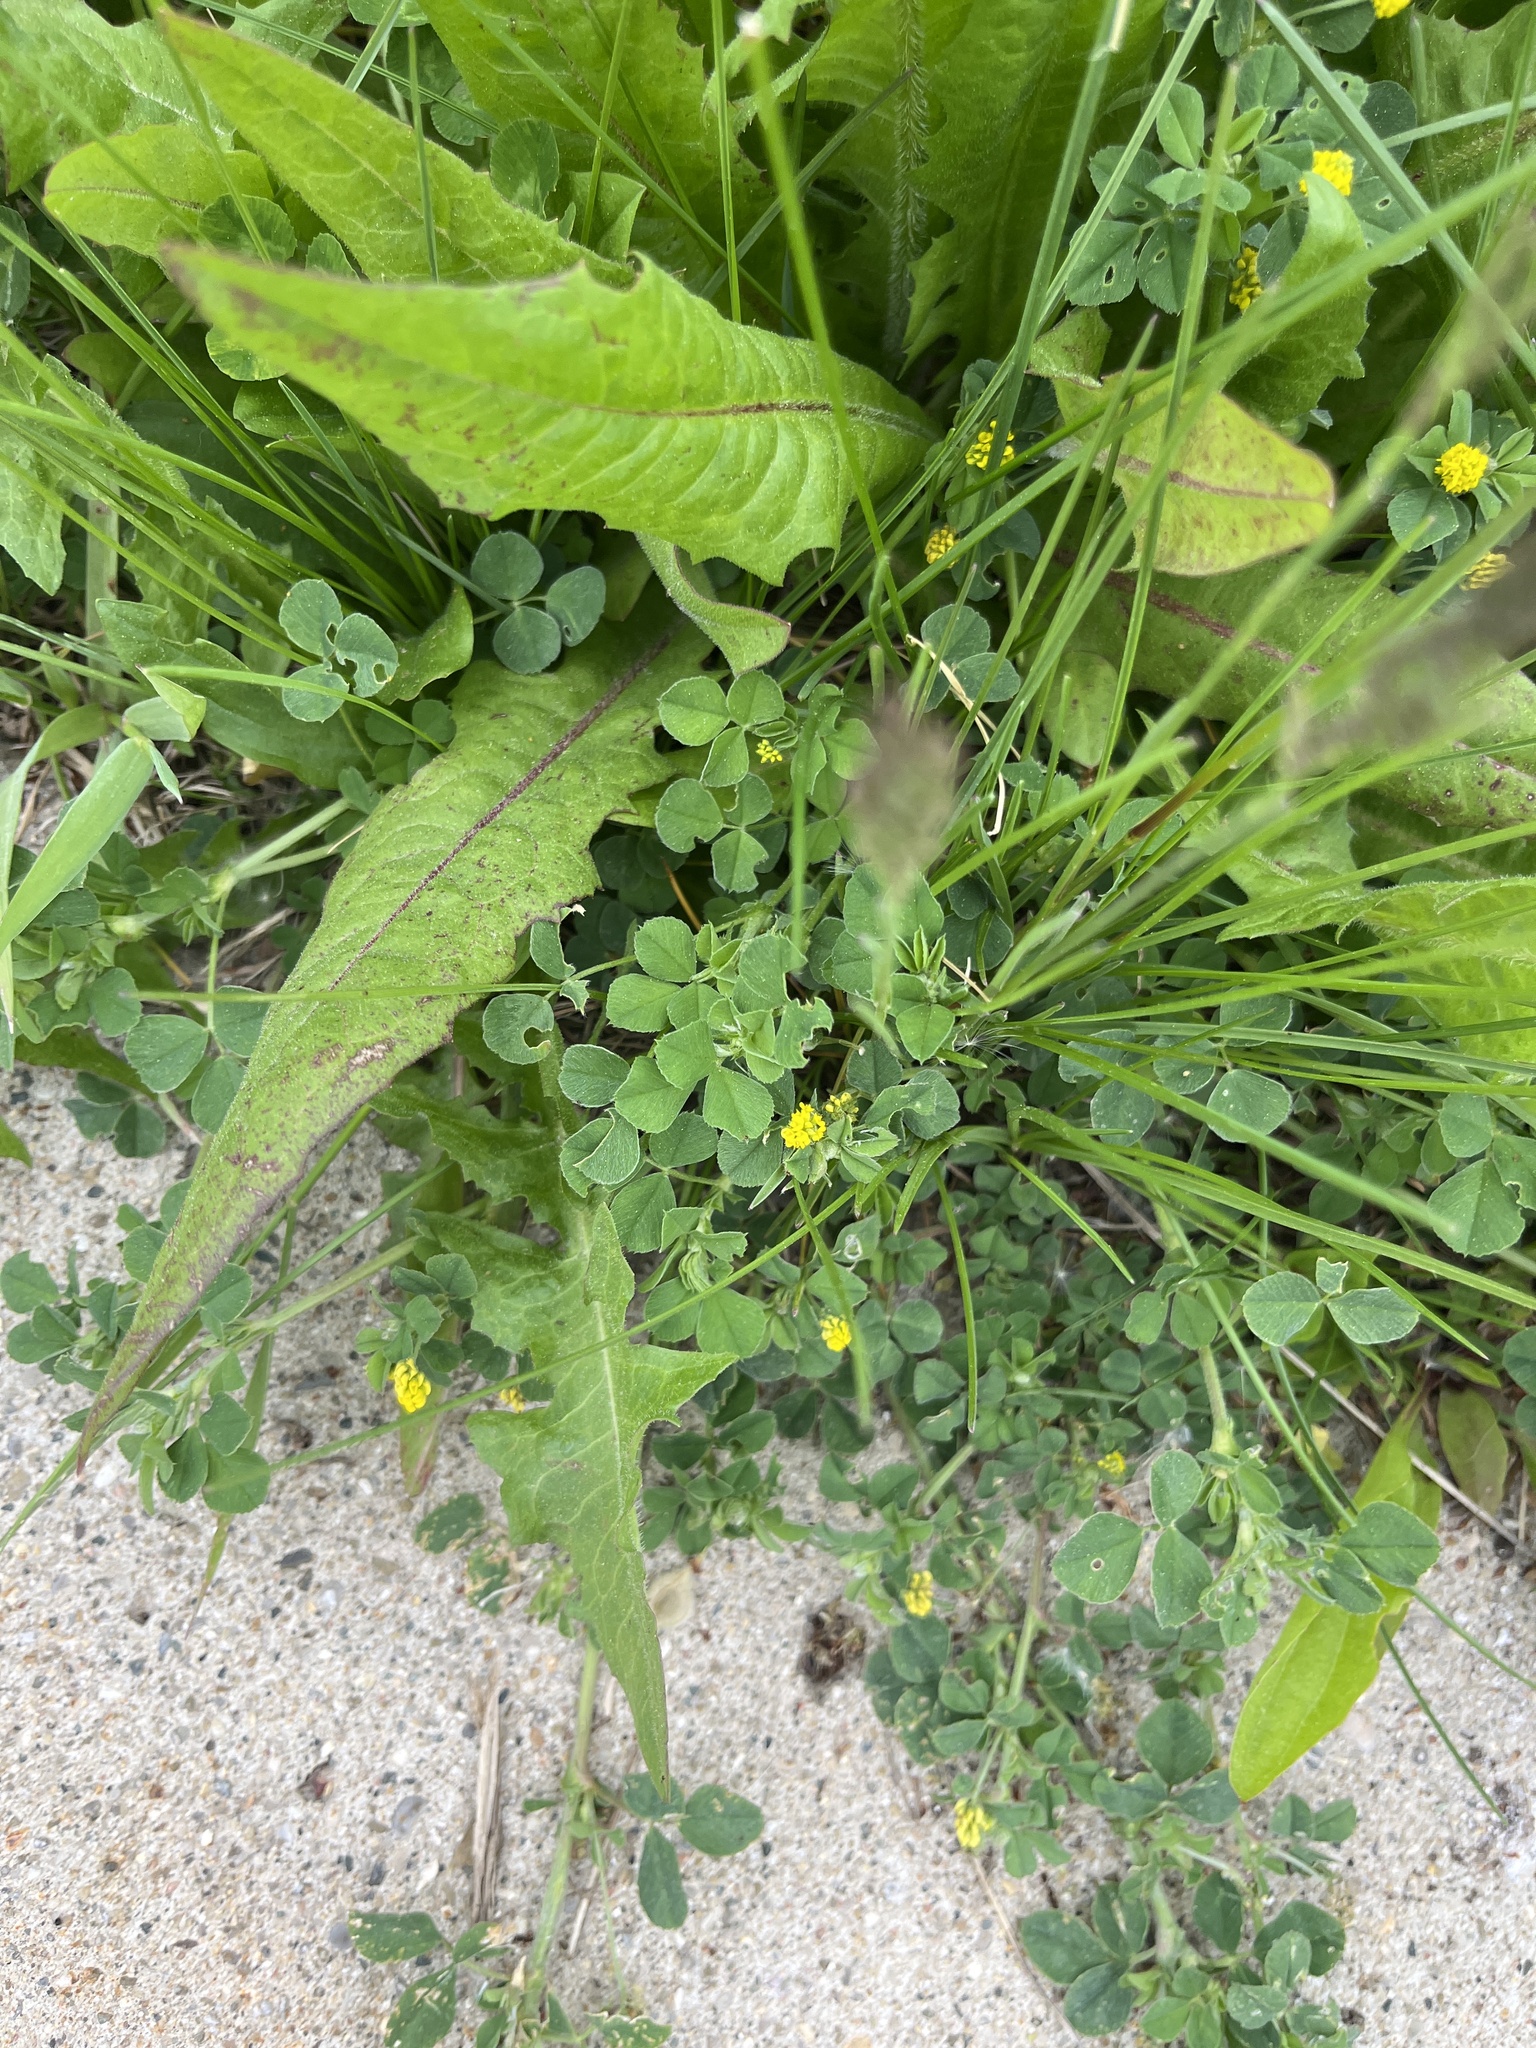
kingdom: Plantae
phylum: Tracheophyta
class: Magnoliopsida
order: Fabales
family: Fabaceae
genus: Medicago
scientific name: Medicago lupulina
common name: Black medick
